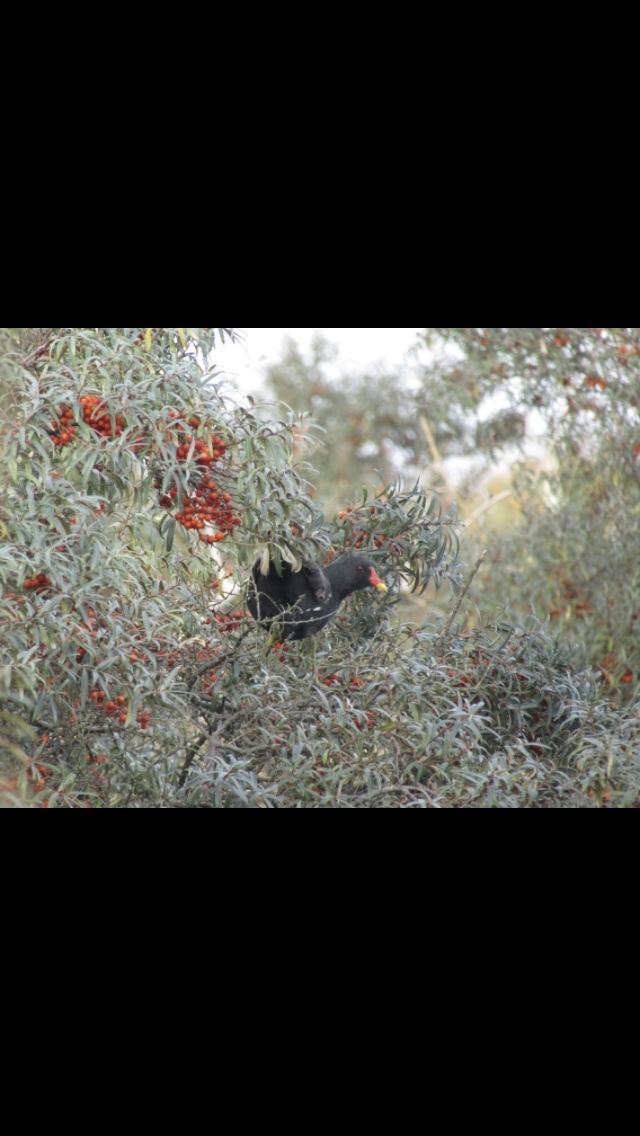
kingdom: Animalia
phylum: Chordata
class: Aves
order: Gruiformes
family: Rallidae
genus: Gallinula
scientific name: Gallinula chloropus
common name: Common moorhen
